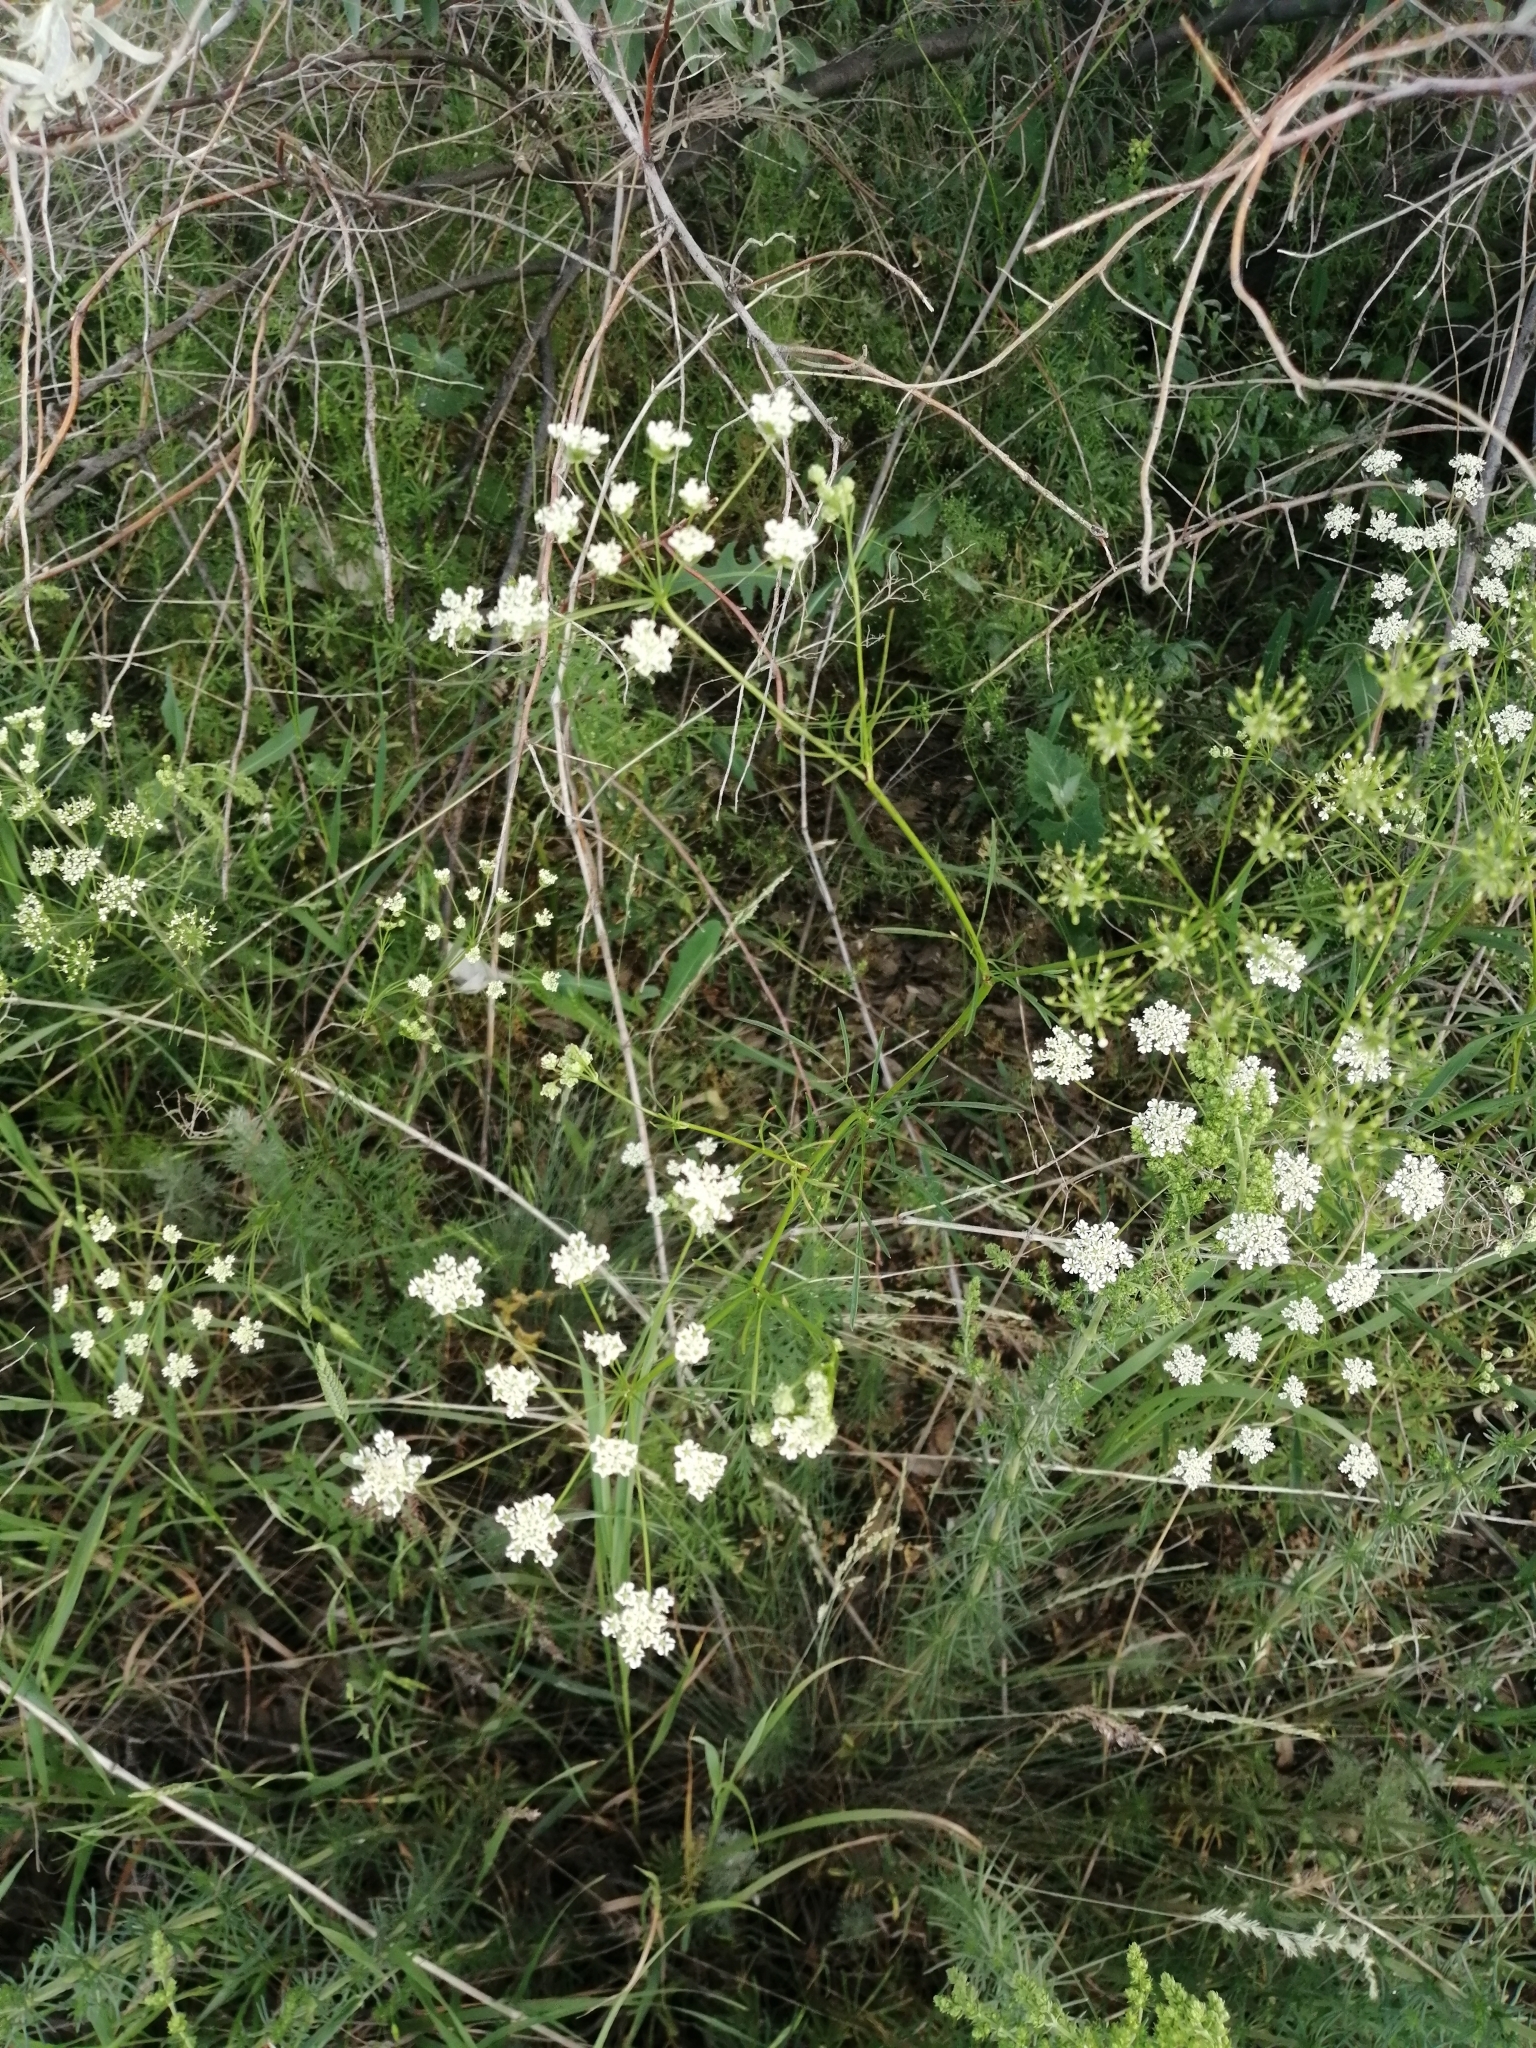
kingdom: Plantae
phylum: Tracheophyta
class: Magnoliopsida
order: Apiales
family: Apiaceae
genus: Chaerophyllum
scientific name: Chaerophyllum prescottii
